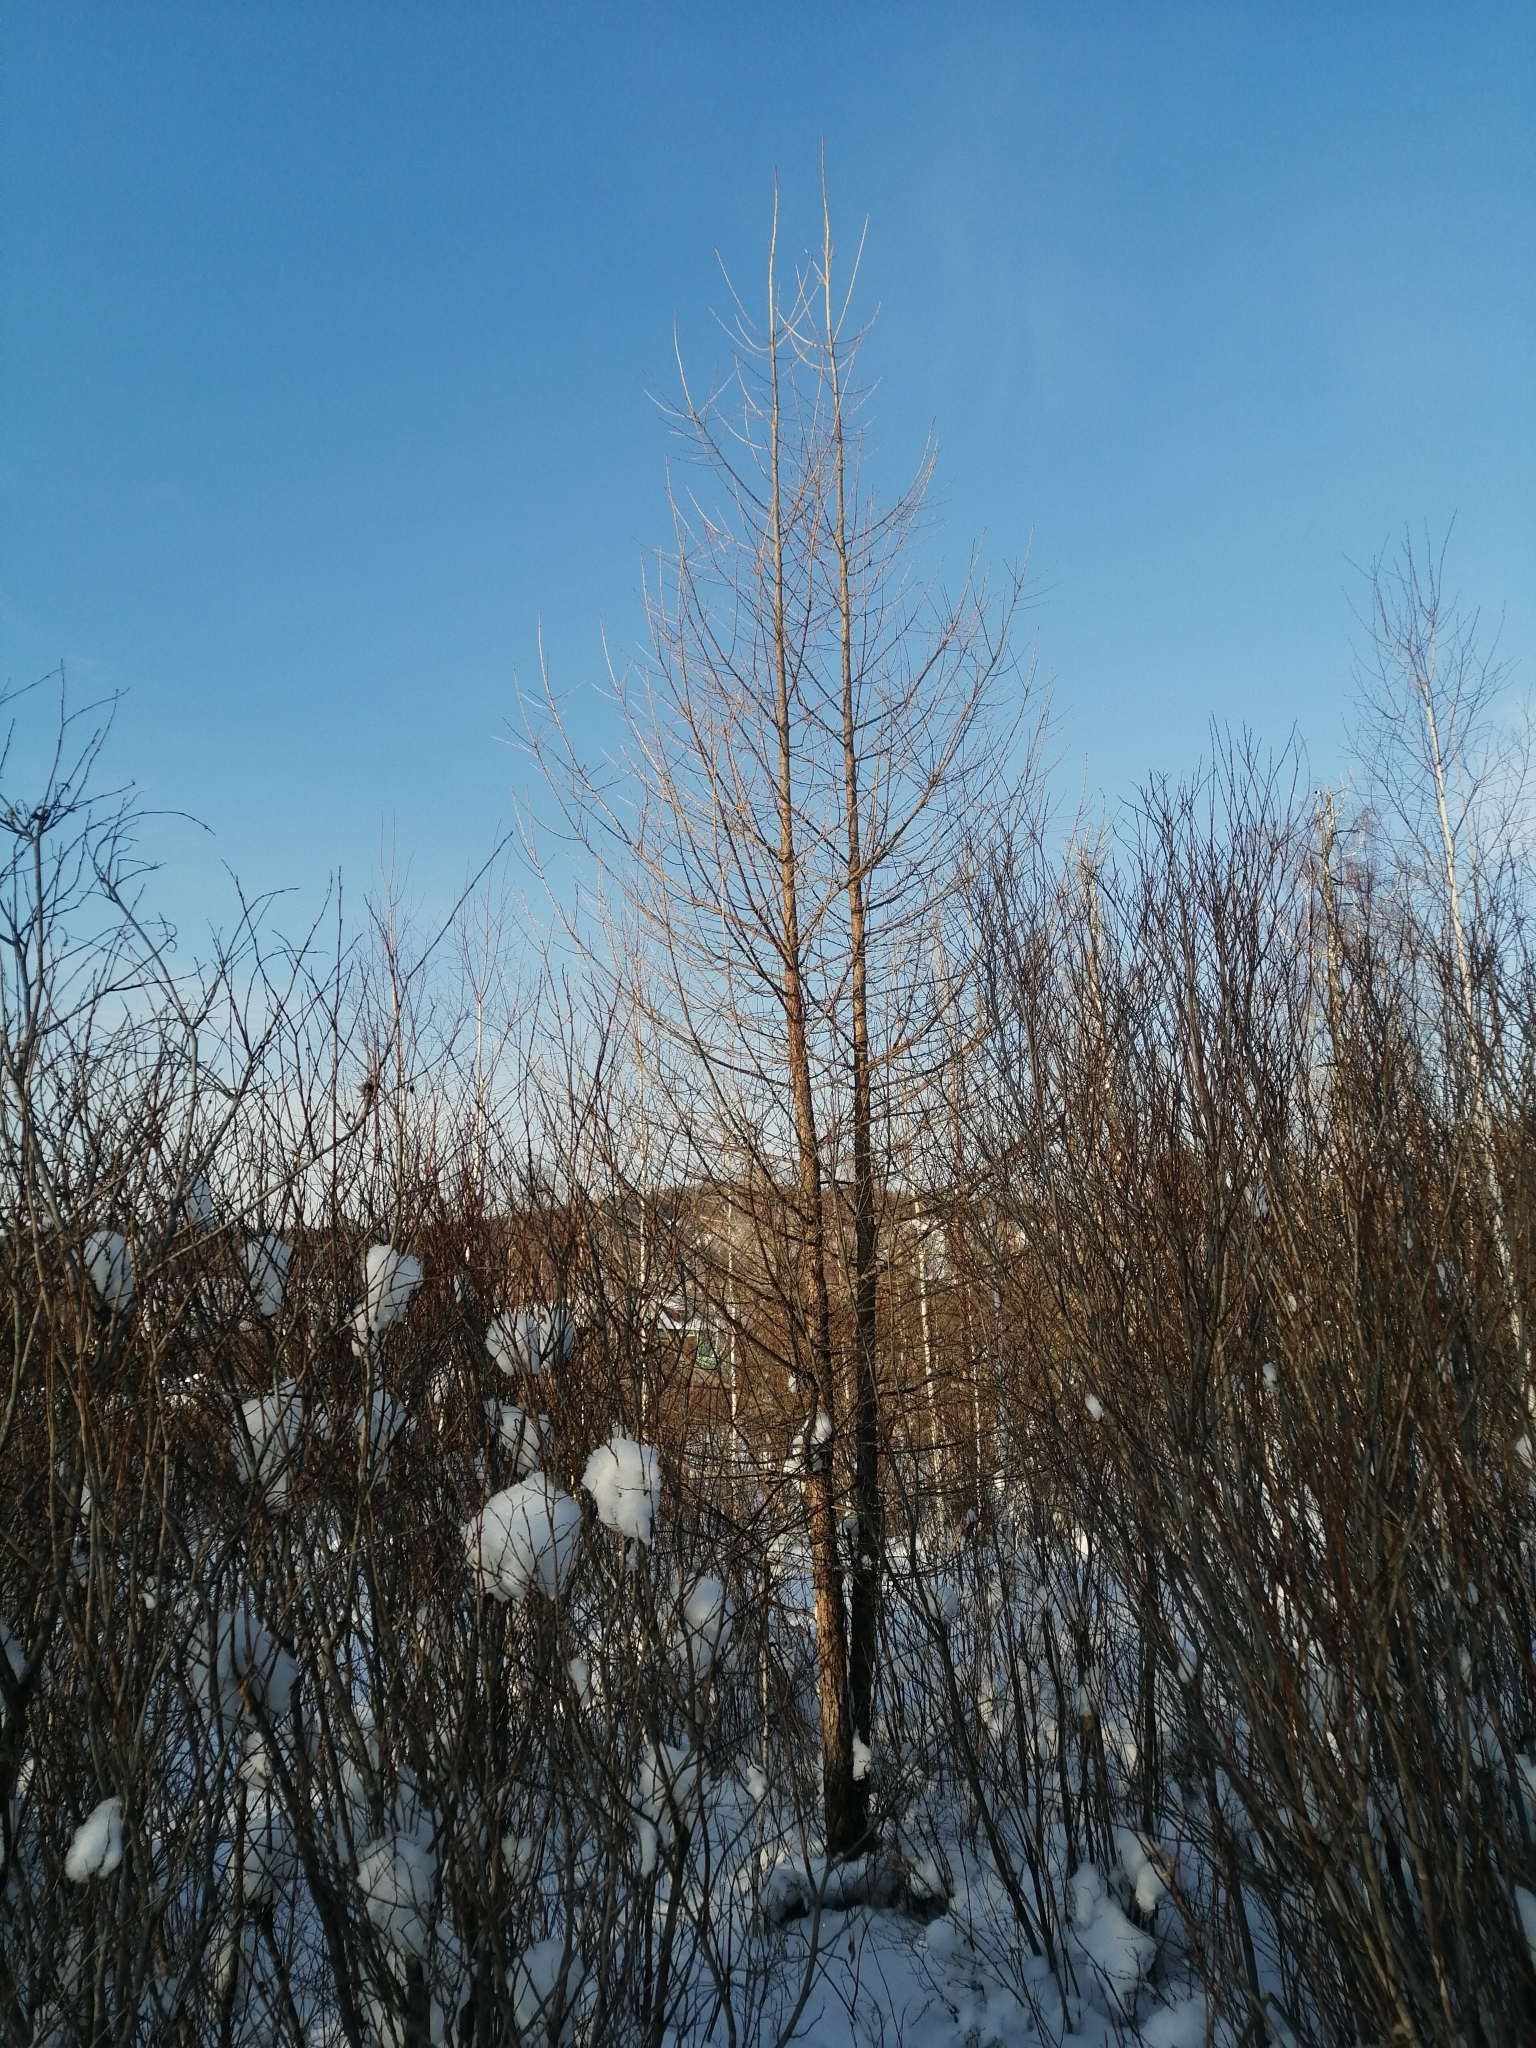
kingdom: Plantae
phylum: Tracheophyta
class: Pinopsida
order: Pinales
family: Pinaceae
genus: Larix
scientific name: Larix sibirica
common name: Siberian larch
